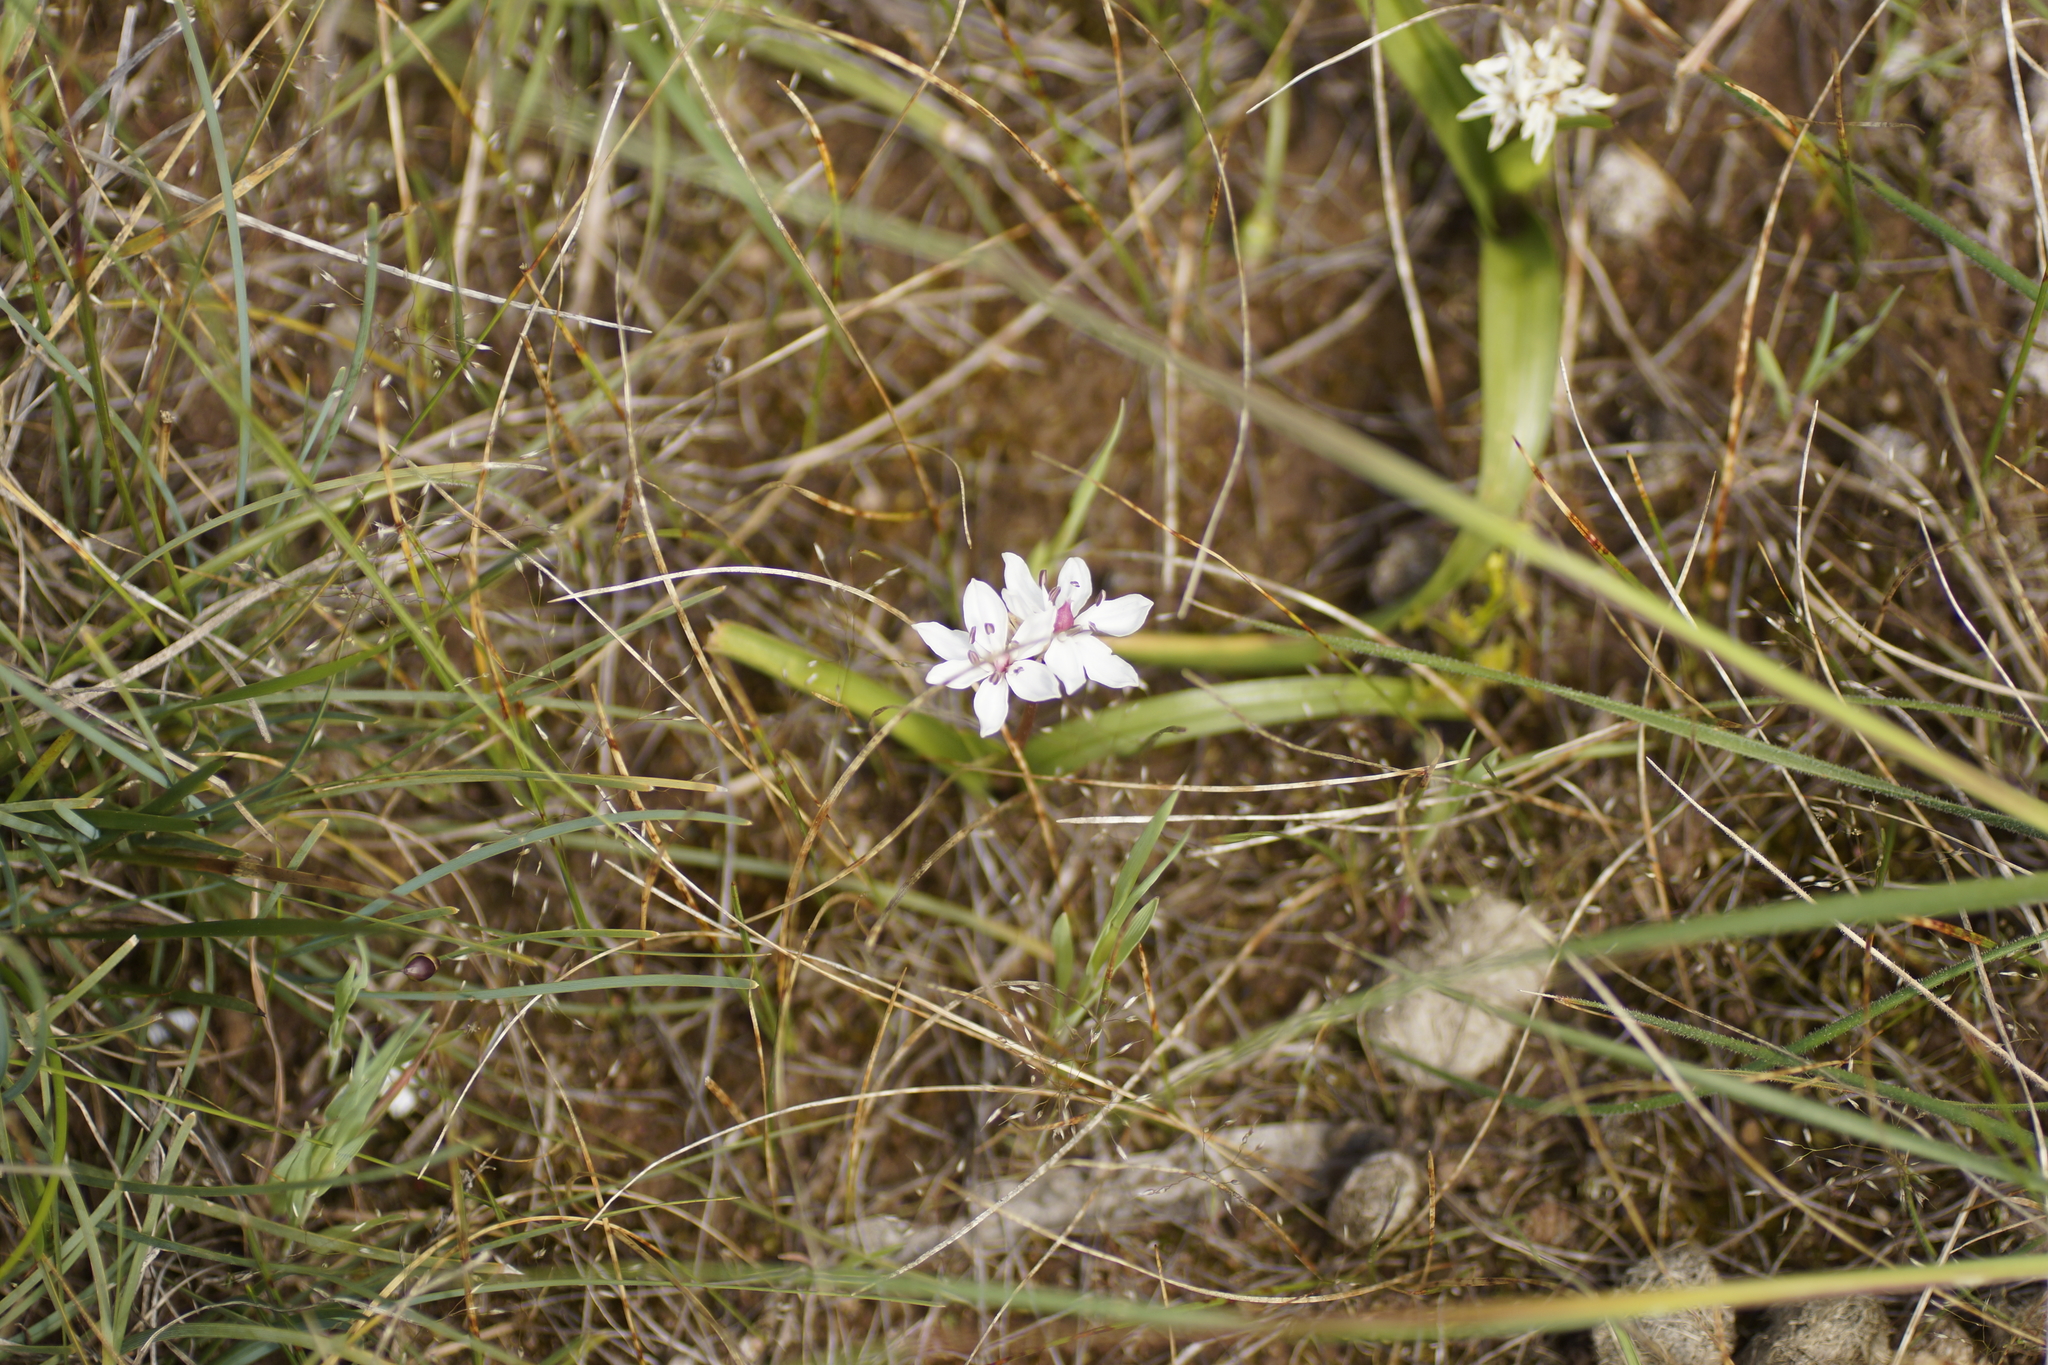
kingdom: Plantae
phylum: Tracheophyta
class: Liliopsida
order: Liliales
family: Colchicaceae
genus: Burchardia
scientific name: Burchardia umbellata
